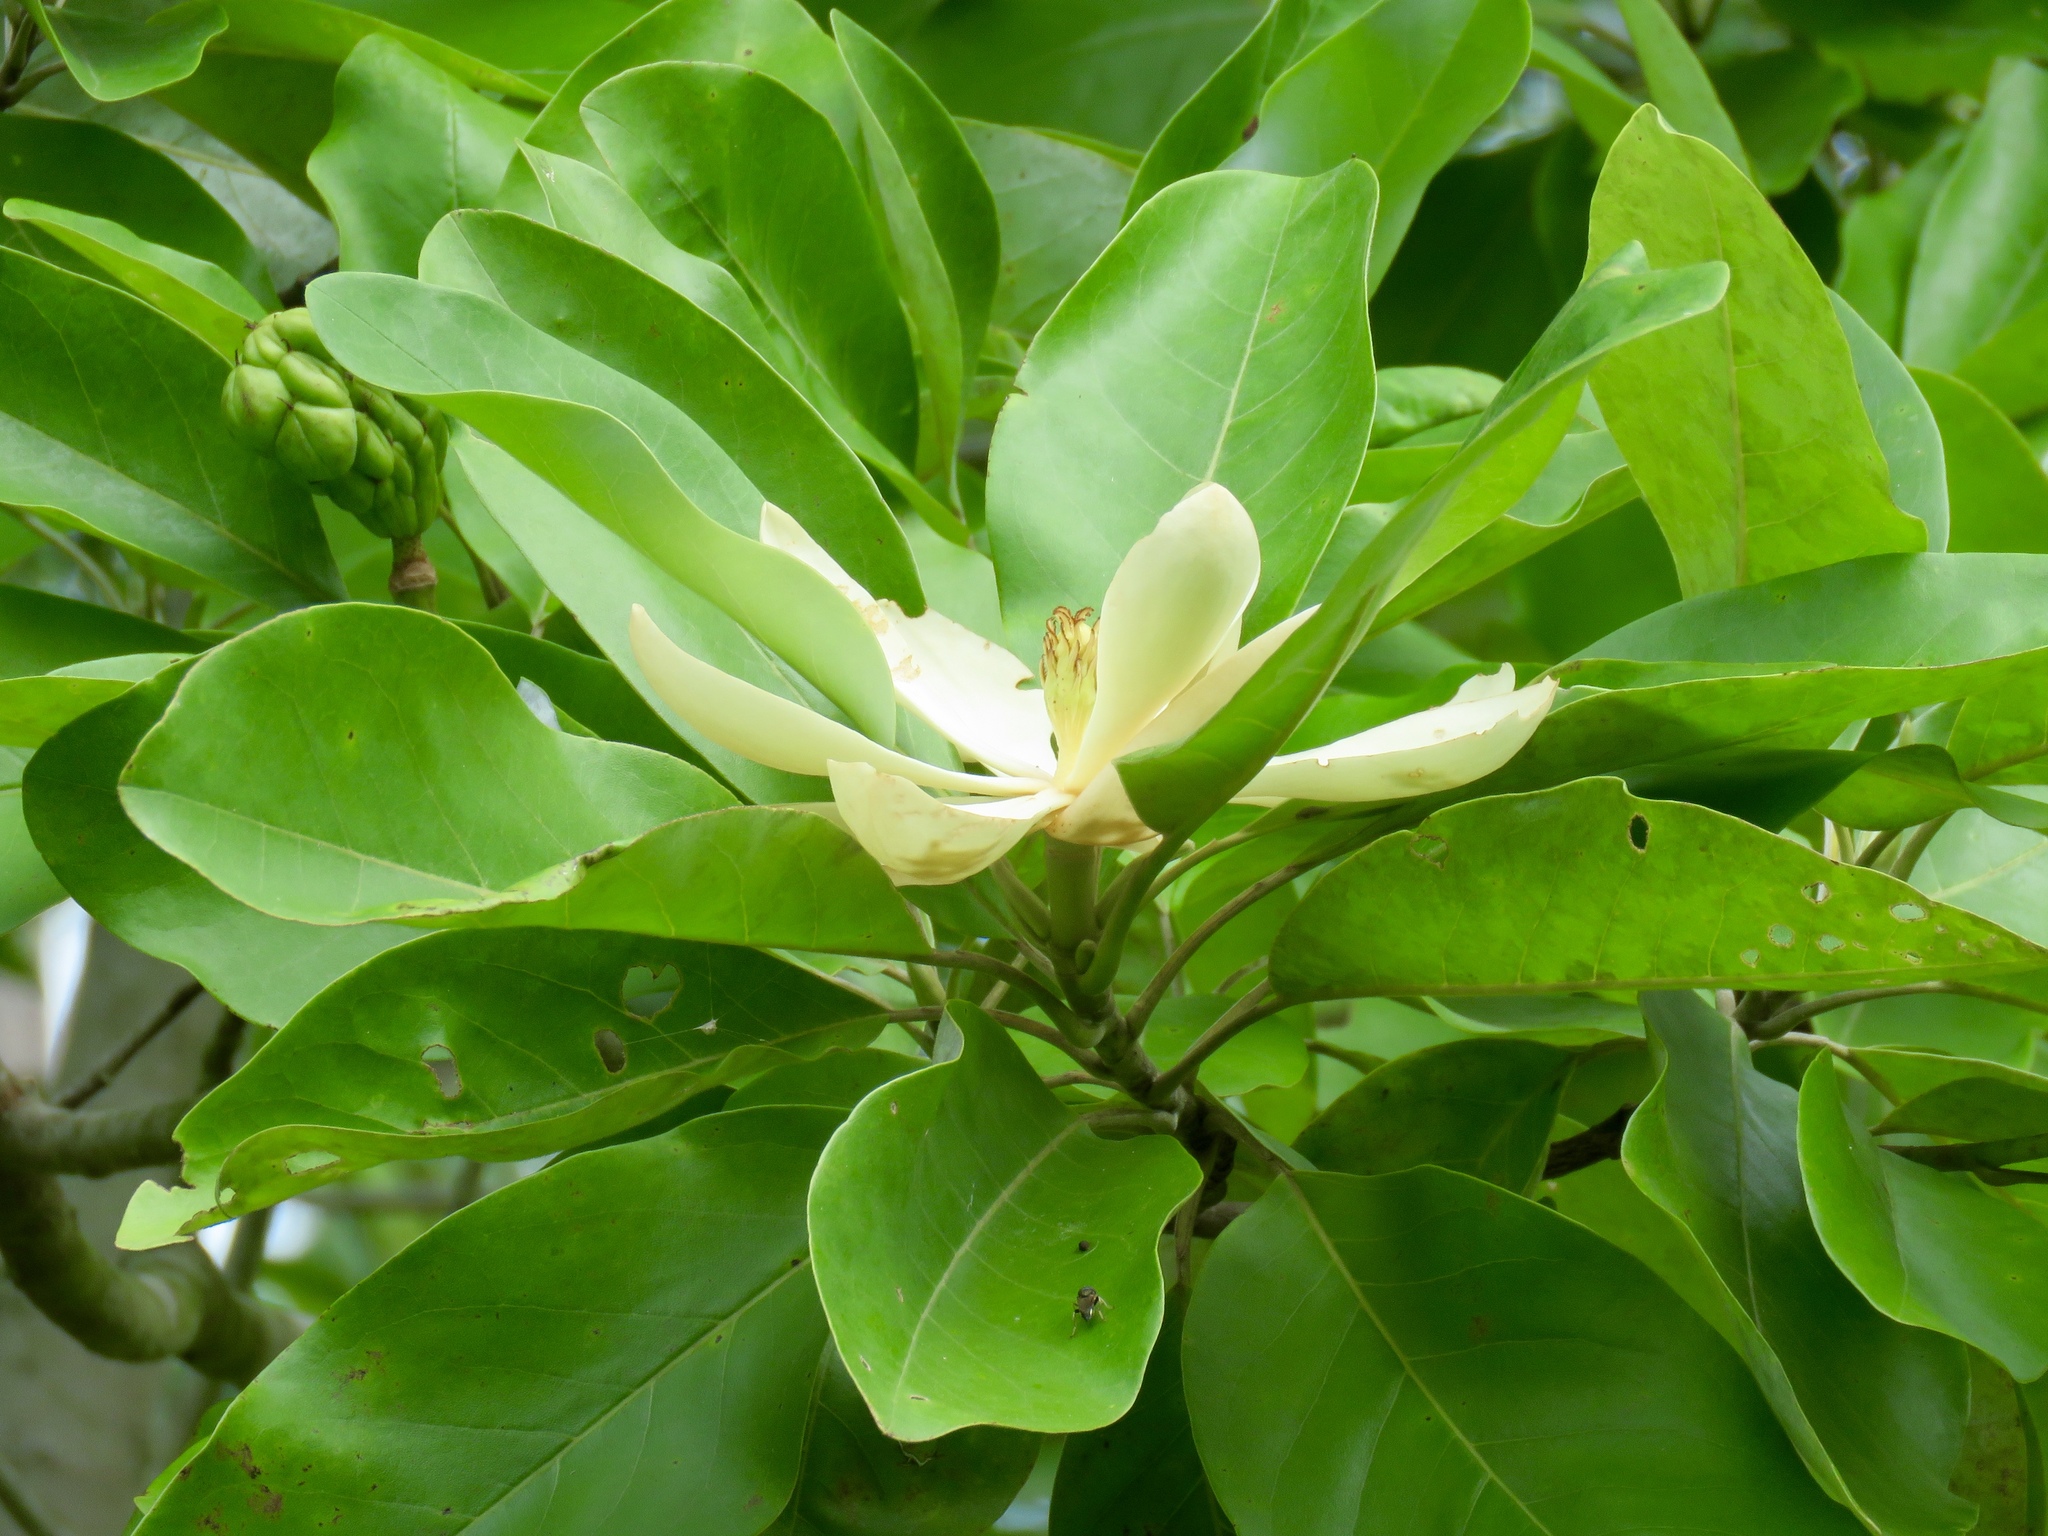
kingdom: Plantae
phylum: Tracheophyta
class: Magnoliopsida
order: Magnoliales
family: Magnoliaceae
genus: Magnolia
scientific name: Magnolia virginiana
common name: Swamp bay
